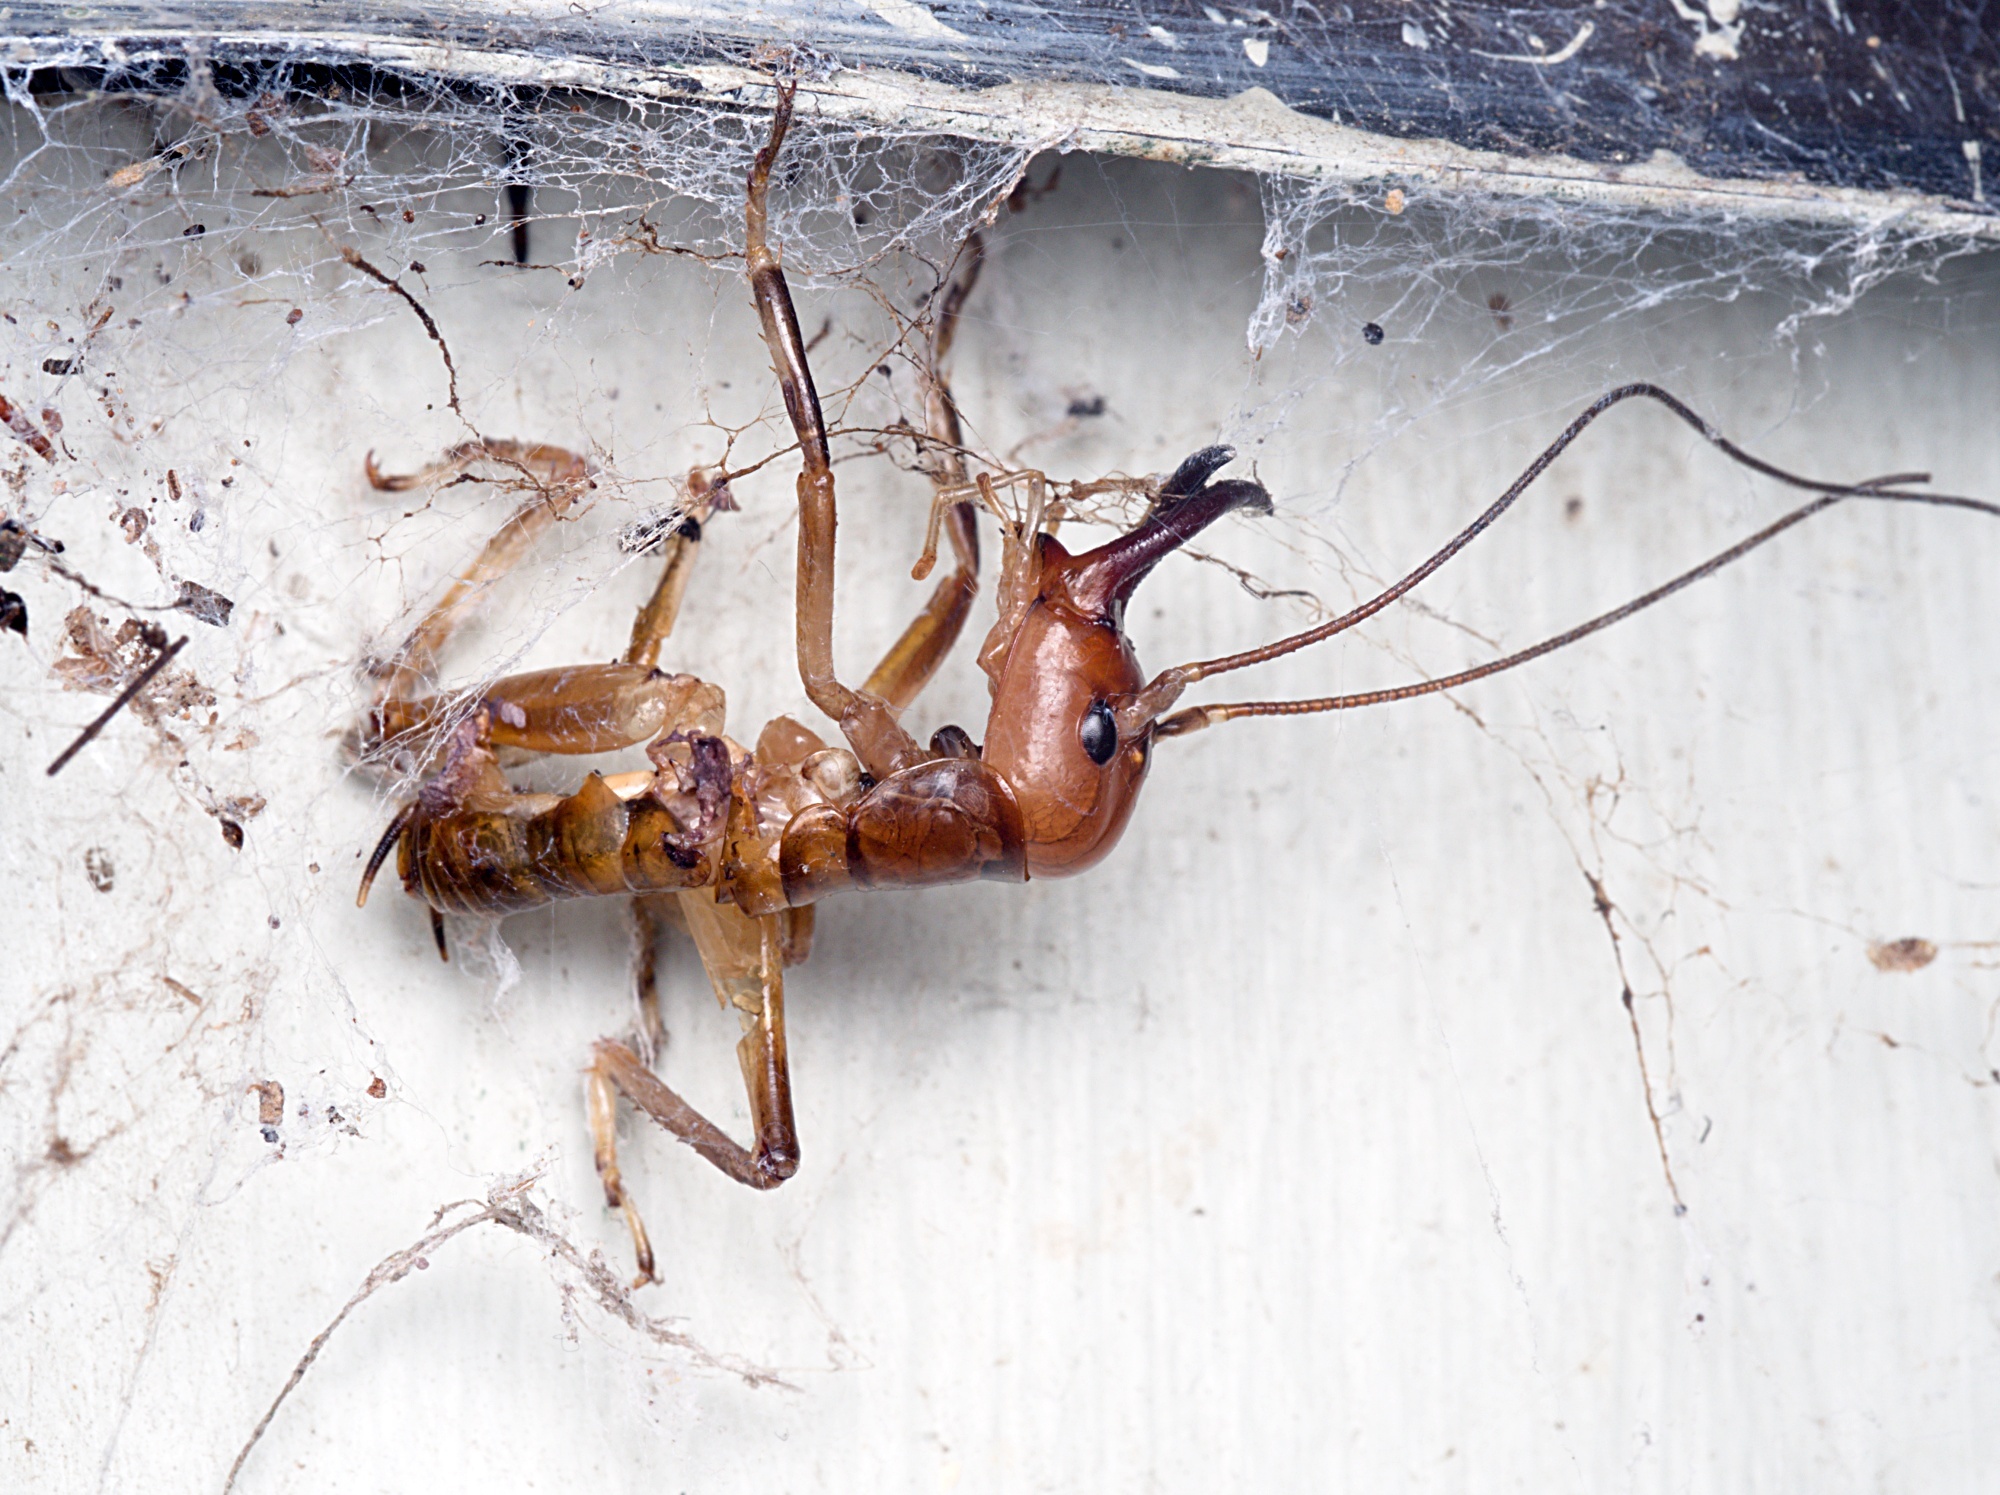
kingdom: Animalia
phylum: Arthropoda
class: Insecta
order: Orthoptera
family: Anostostomatidae
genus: Anisoura
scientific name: Anisoura nicobarica
